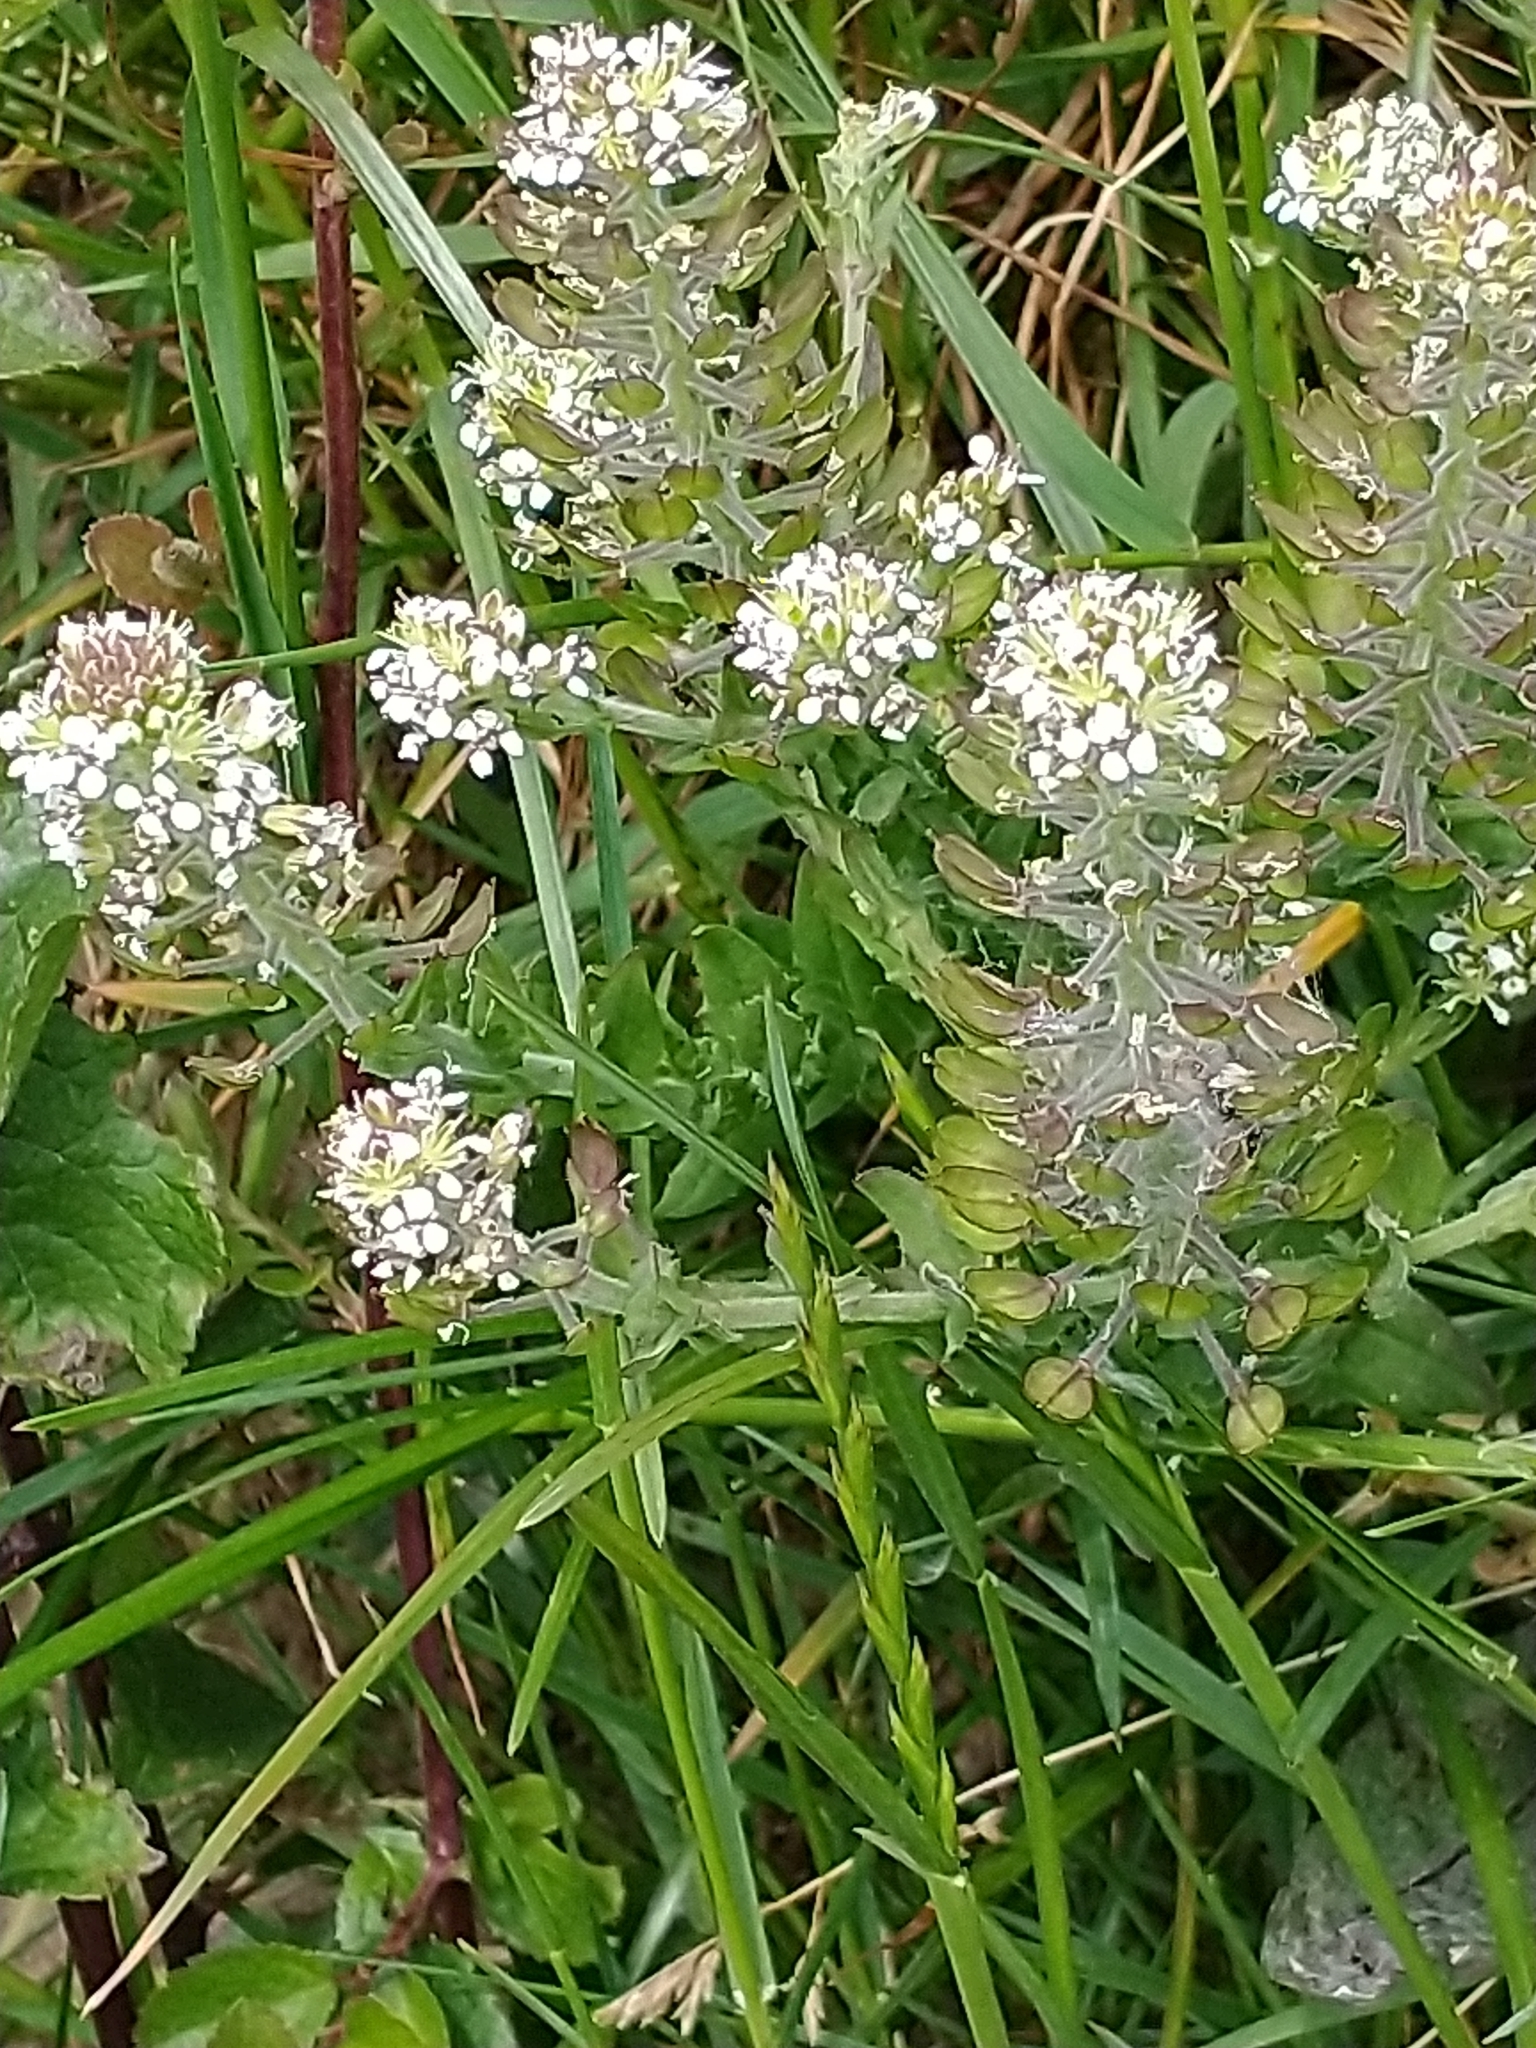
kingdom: Plantae
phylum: Tracheophyta
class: Magnoliopsida
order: Brassicales
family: Brassicaceae
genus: Lepidium
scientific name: Lepidium heterophyllum
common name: Smith's pepperwort
